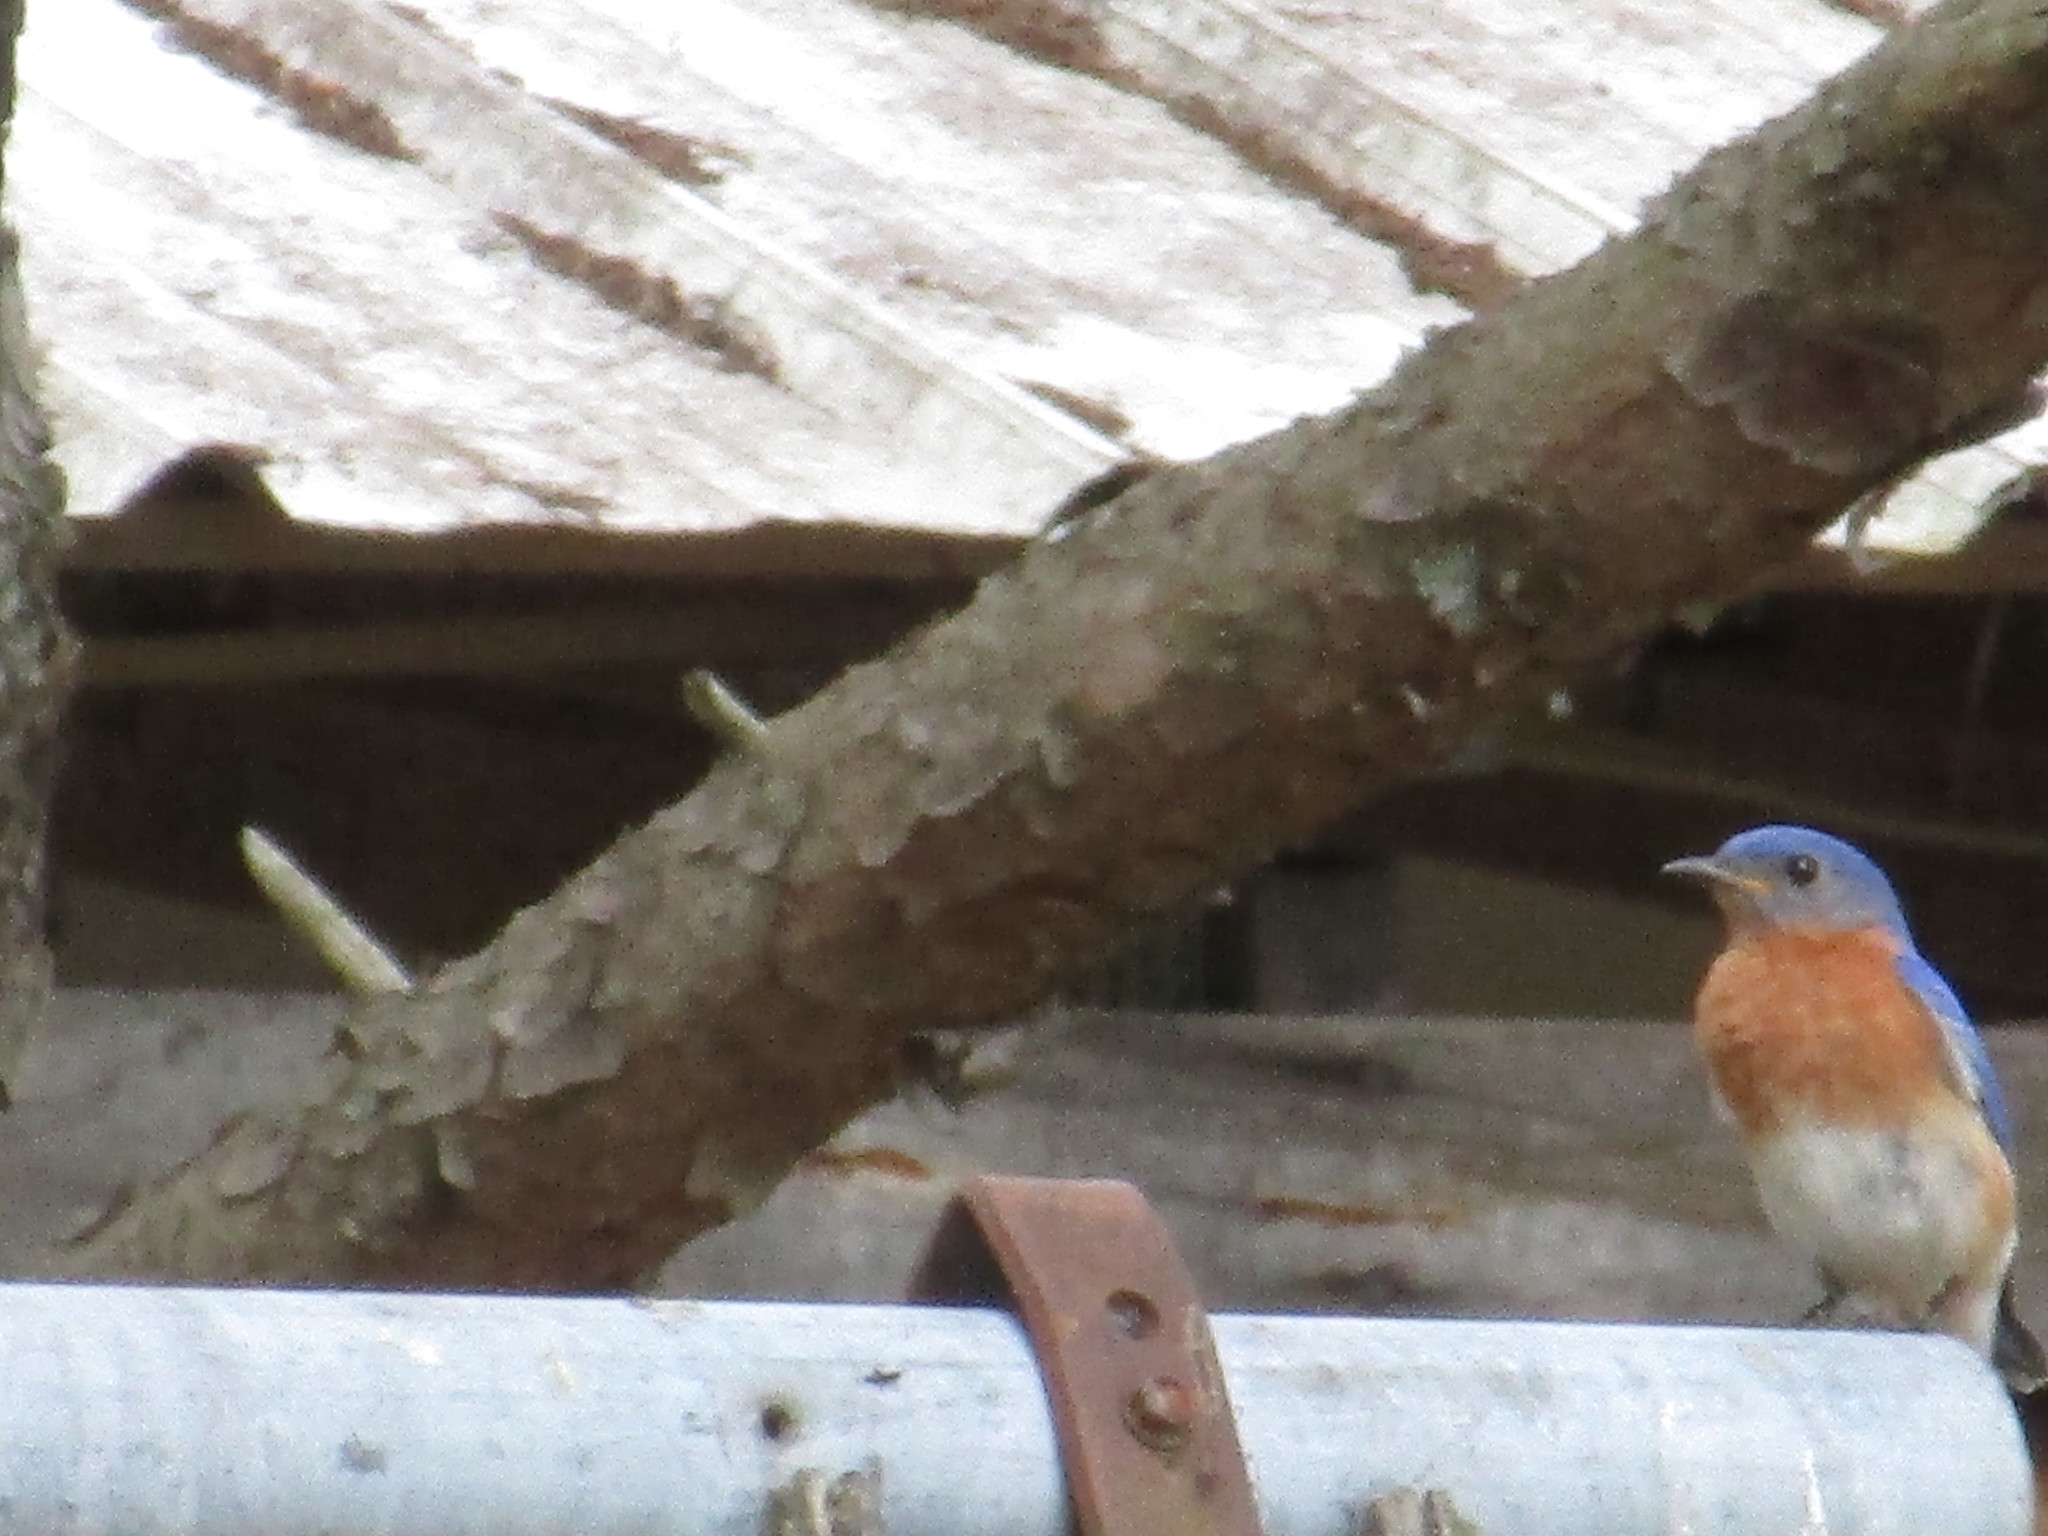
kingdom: Animalia
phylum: Chordata
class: Aves
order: Passeriformes
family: Turdidae
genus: Sialia
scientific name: Sialia sialis
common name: Eastern bluebird
